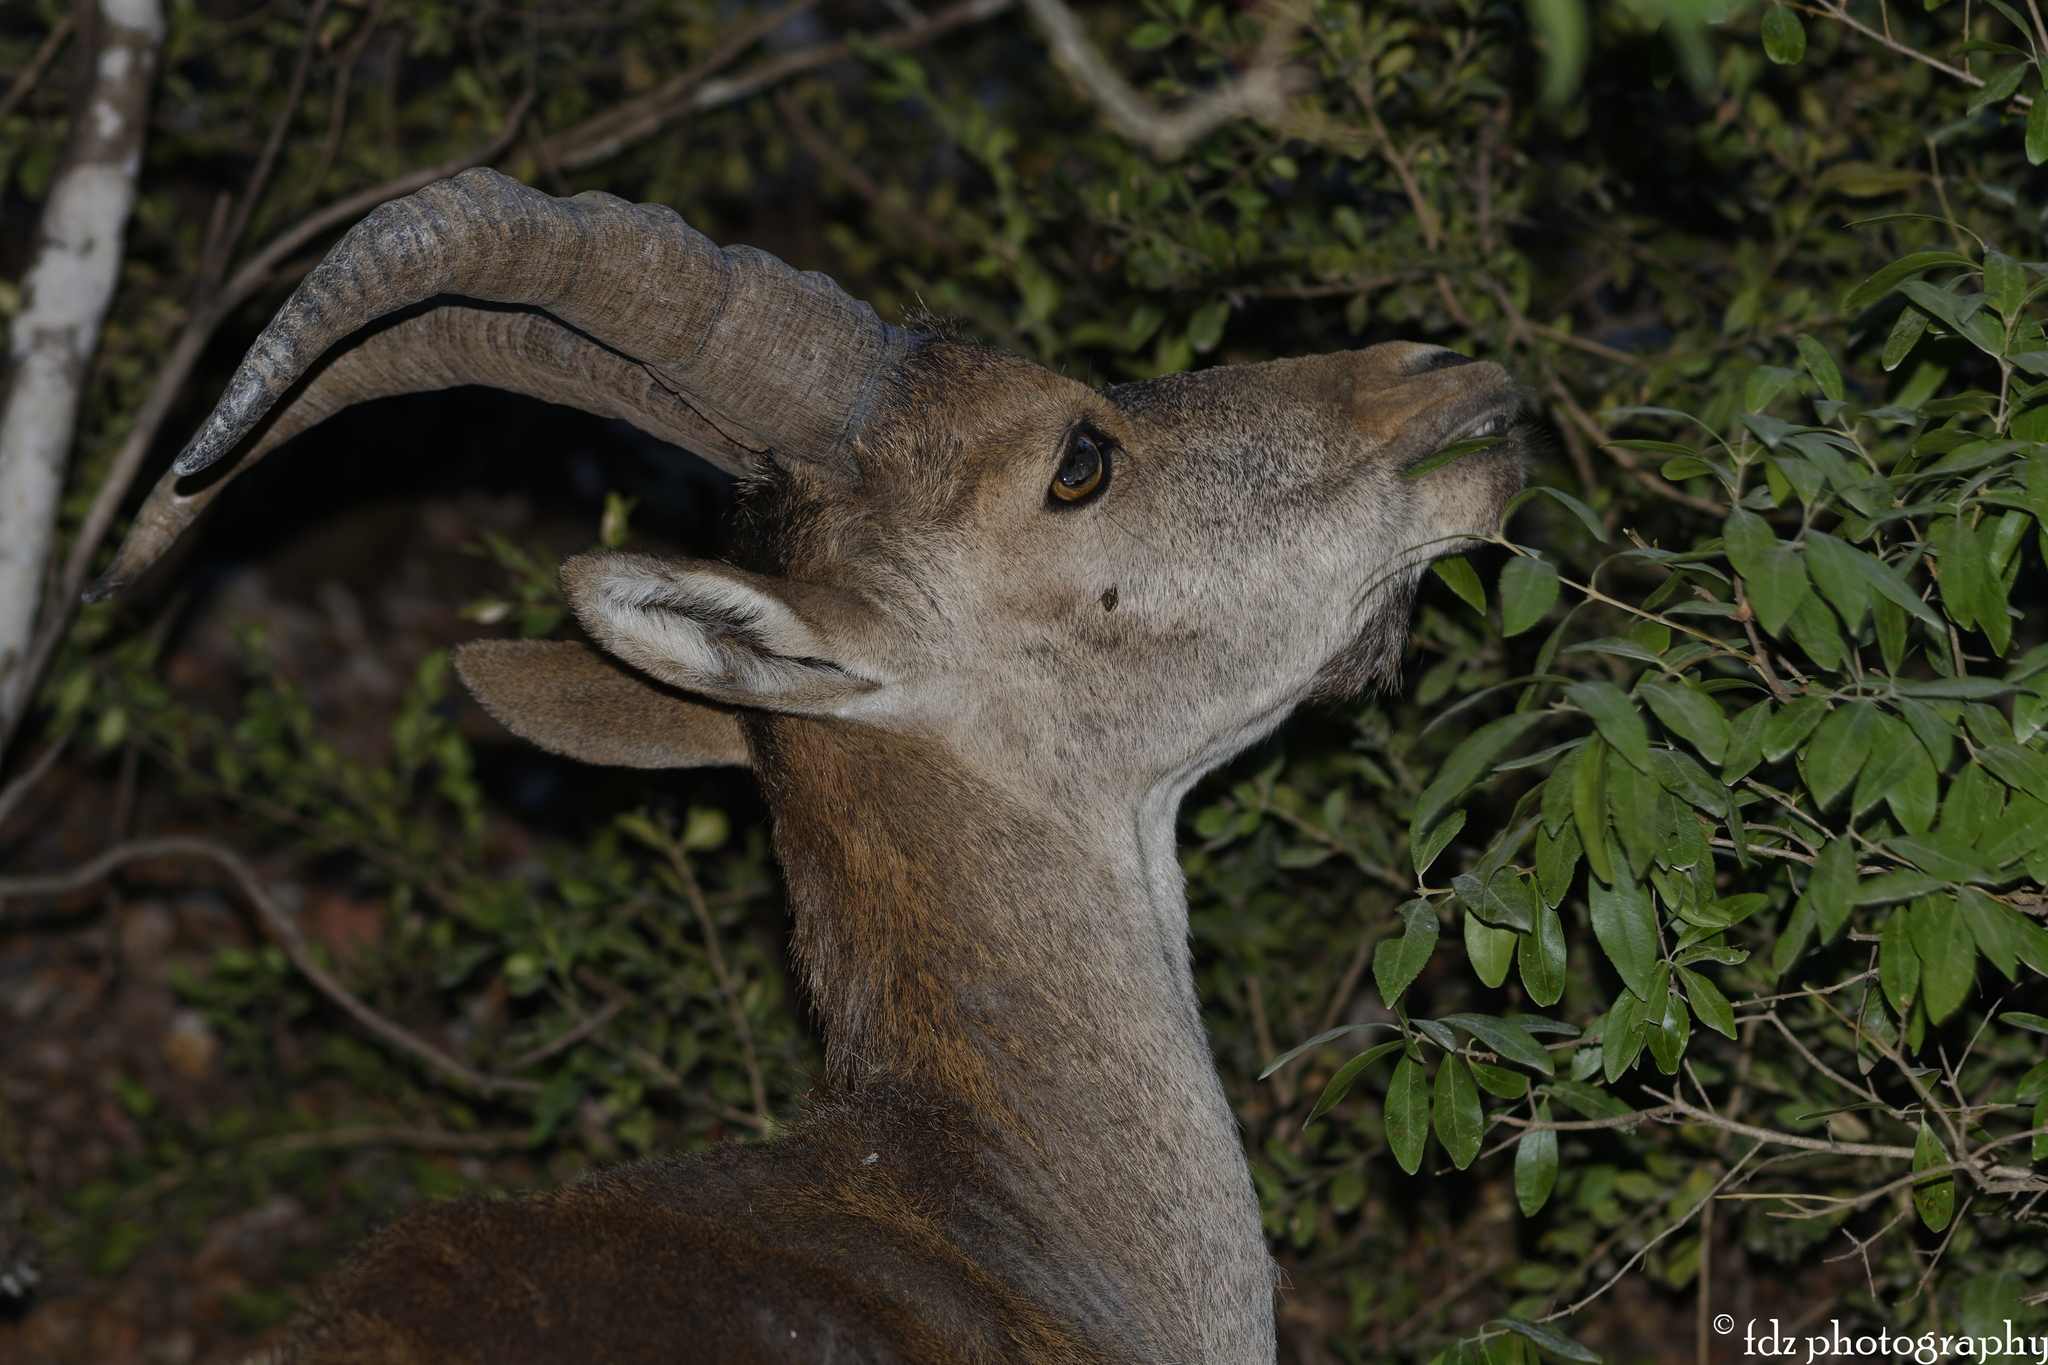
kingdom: Animalia
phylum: Chordata
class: Mammalia
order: Artiodactyla
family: Bovidae
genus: Capra
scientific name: Capra pyrenaica
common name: Spanish ibex
